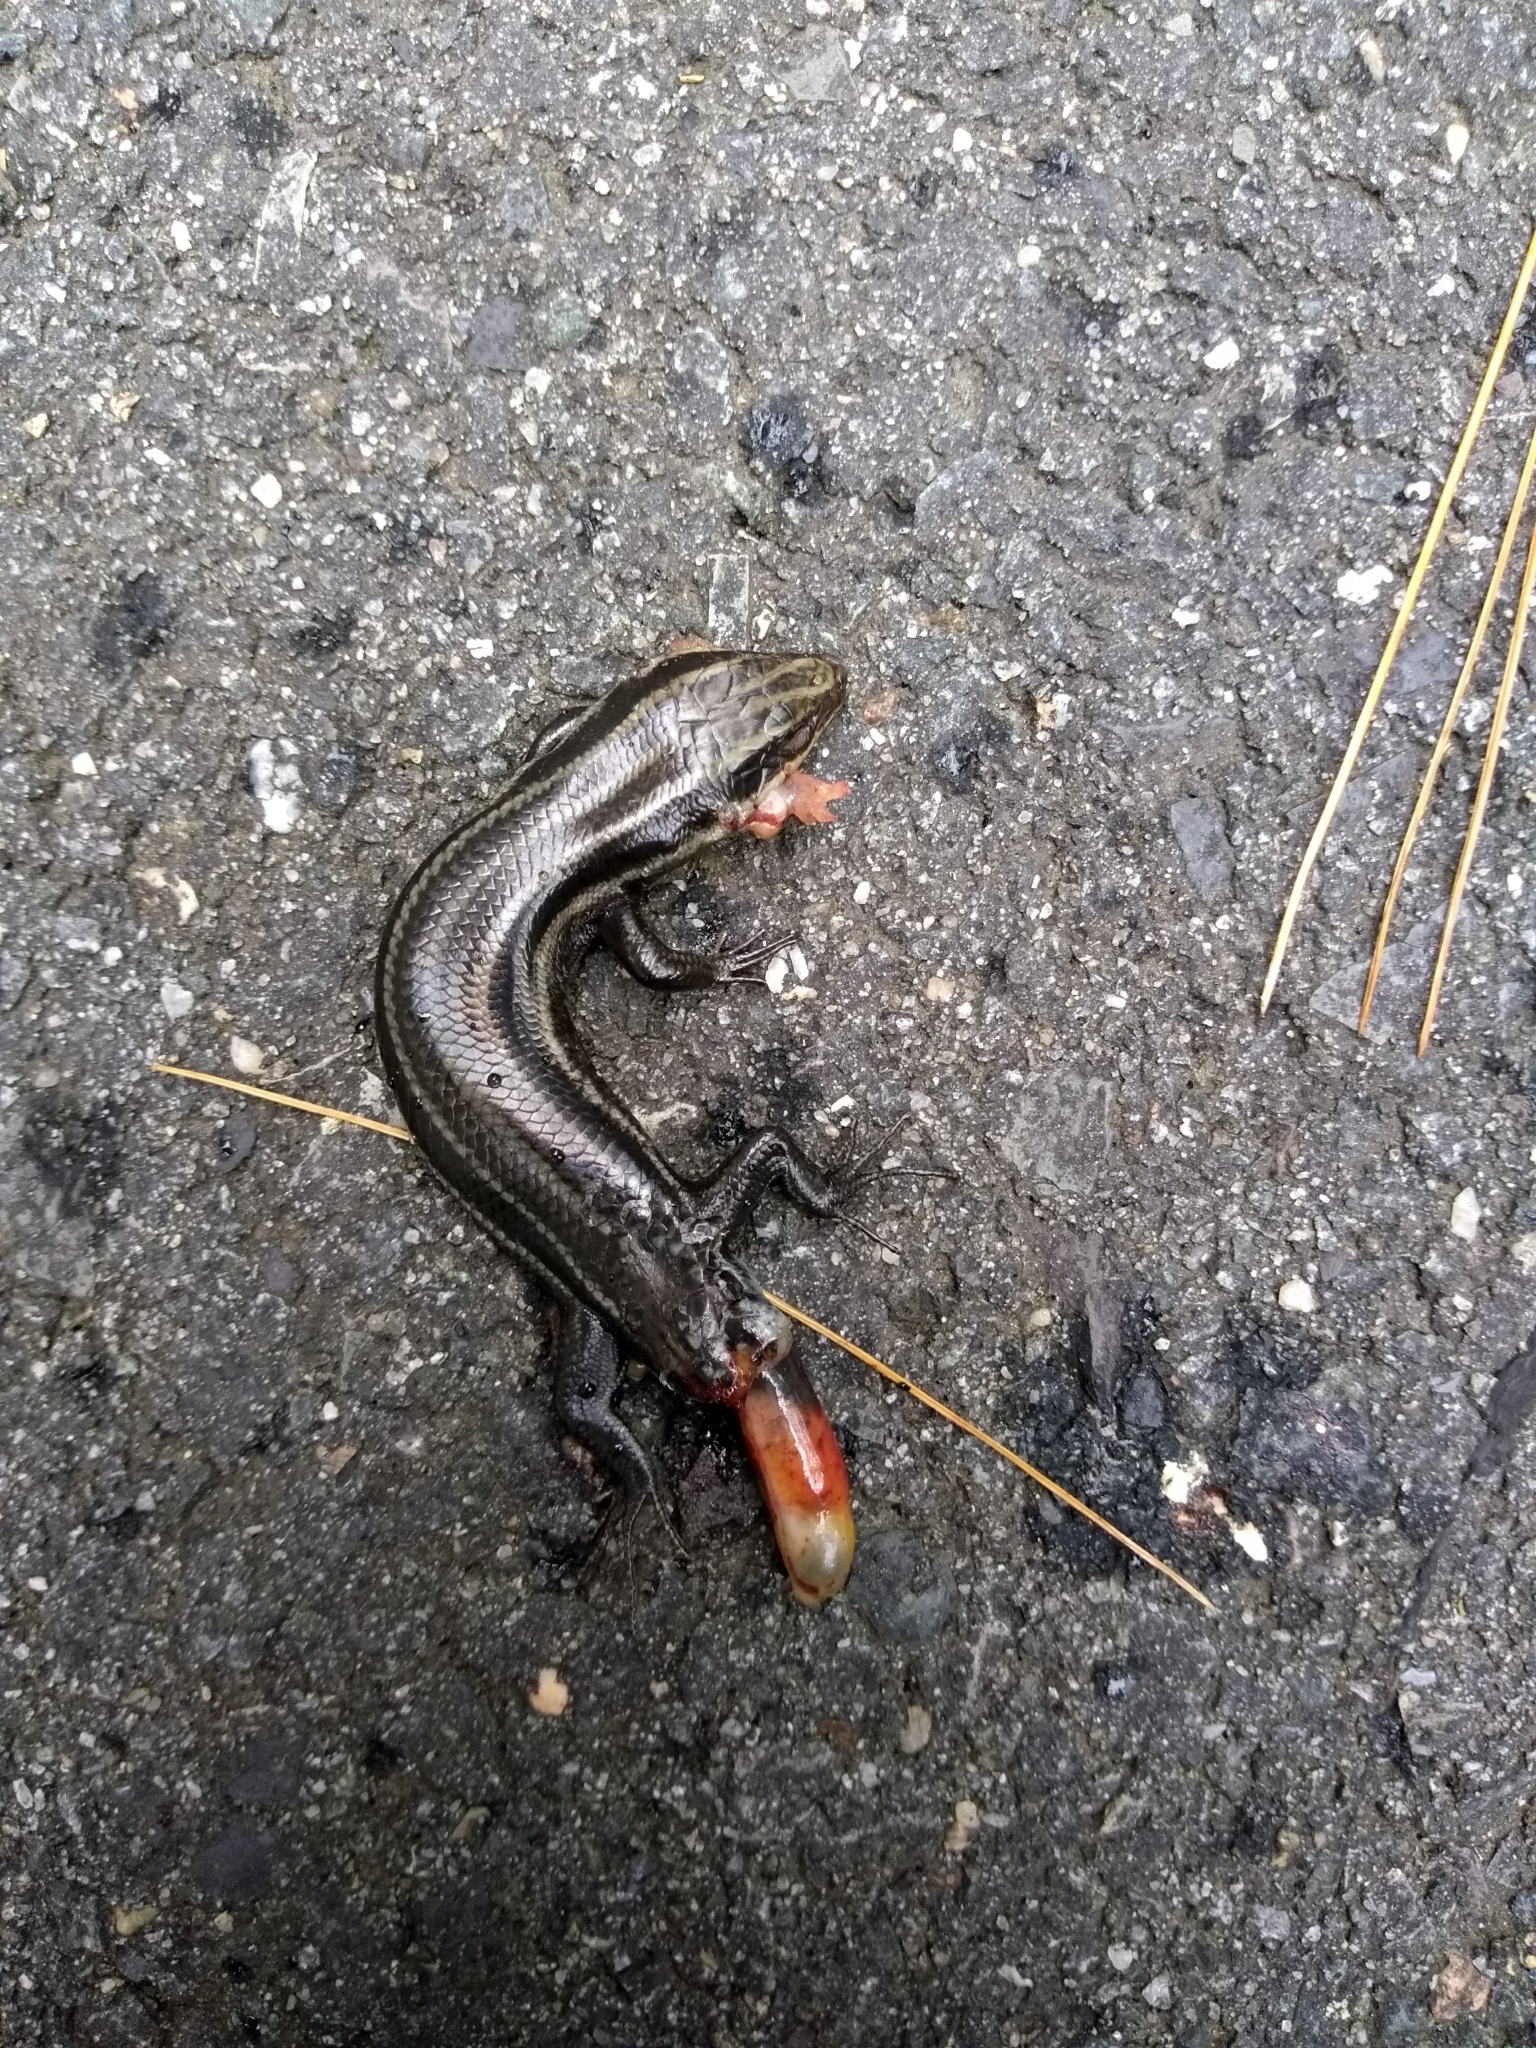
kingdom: Animalia
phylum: Chordata
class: Squamata
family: Scincidae
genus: Plestiodon
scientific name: Plestiodon fasciatus
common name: Five-lined skink
